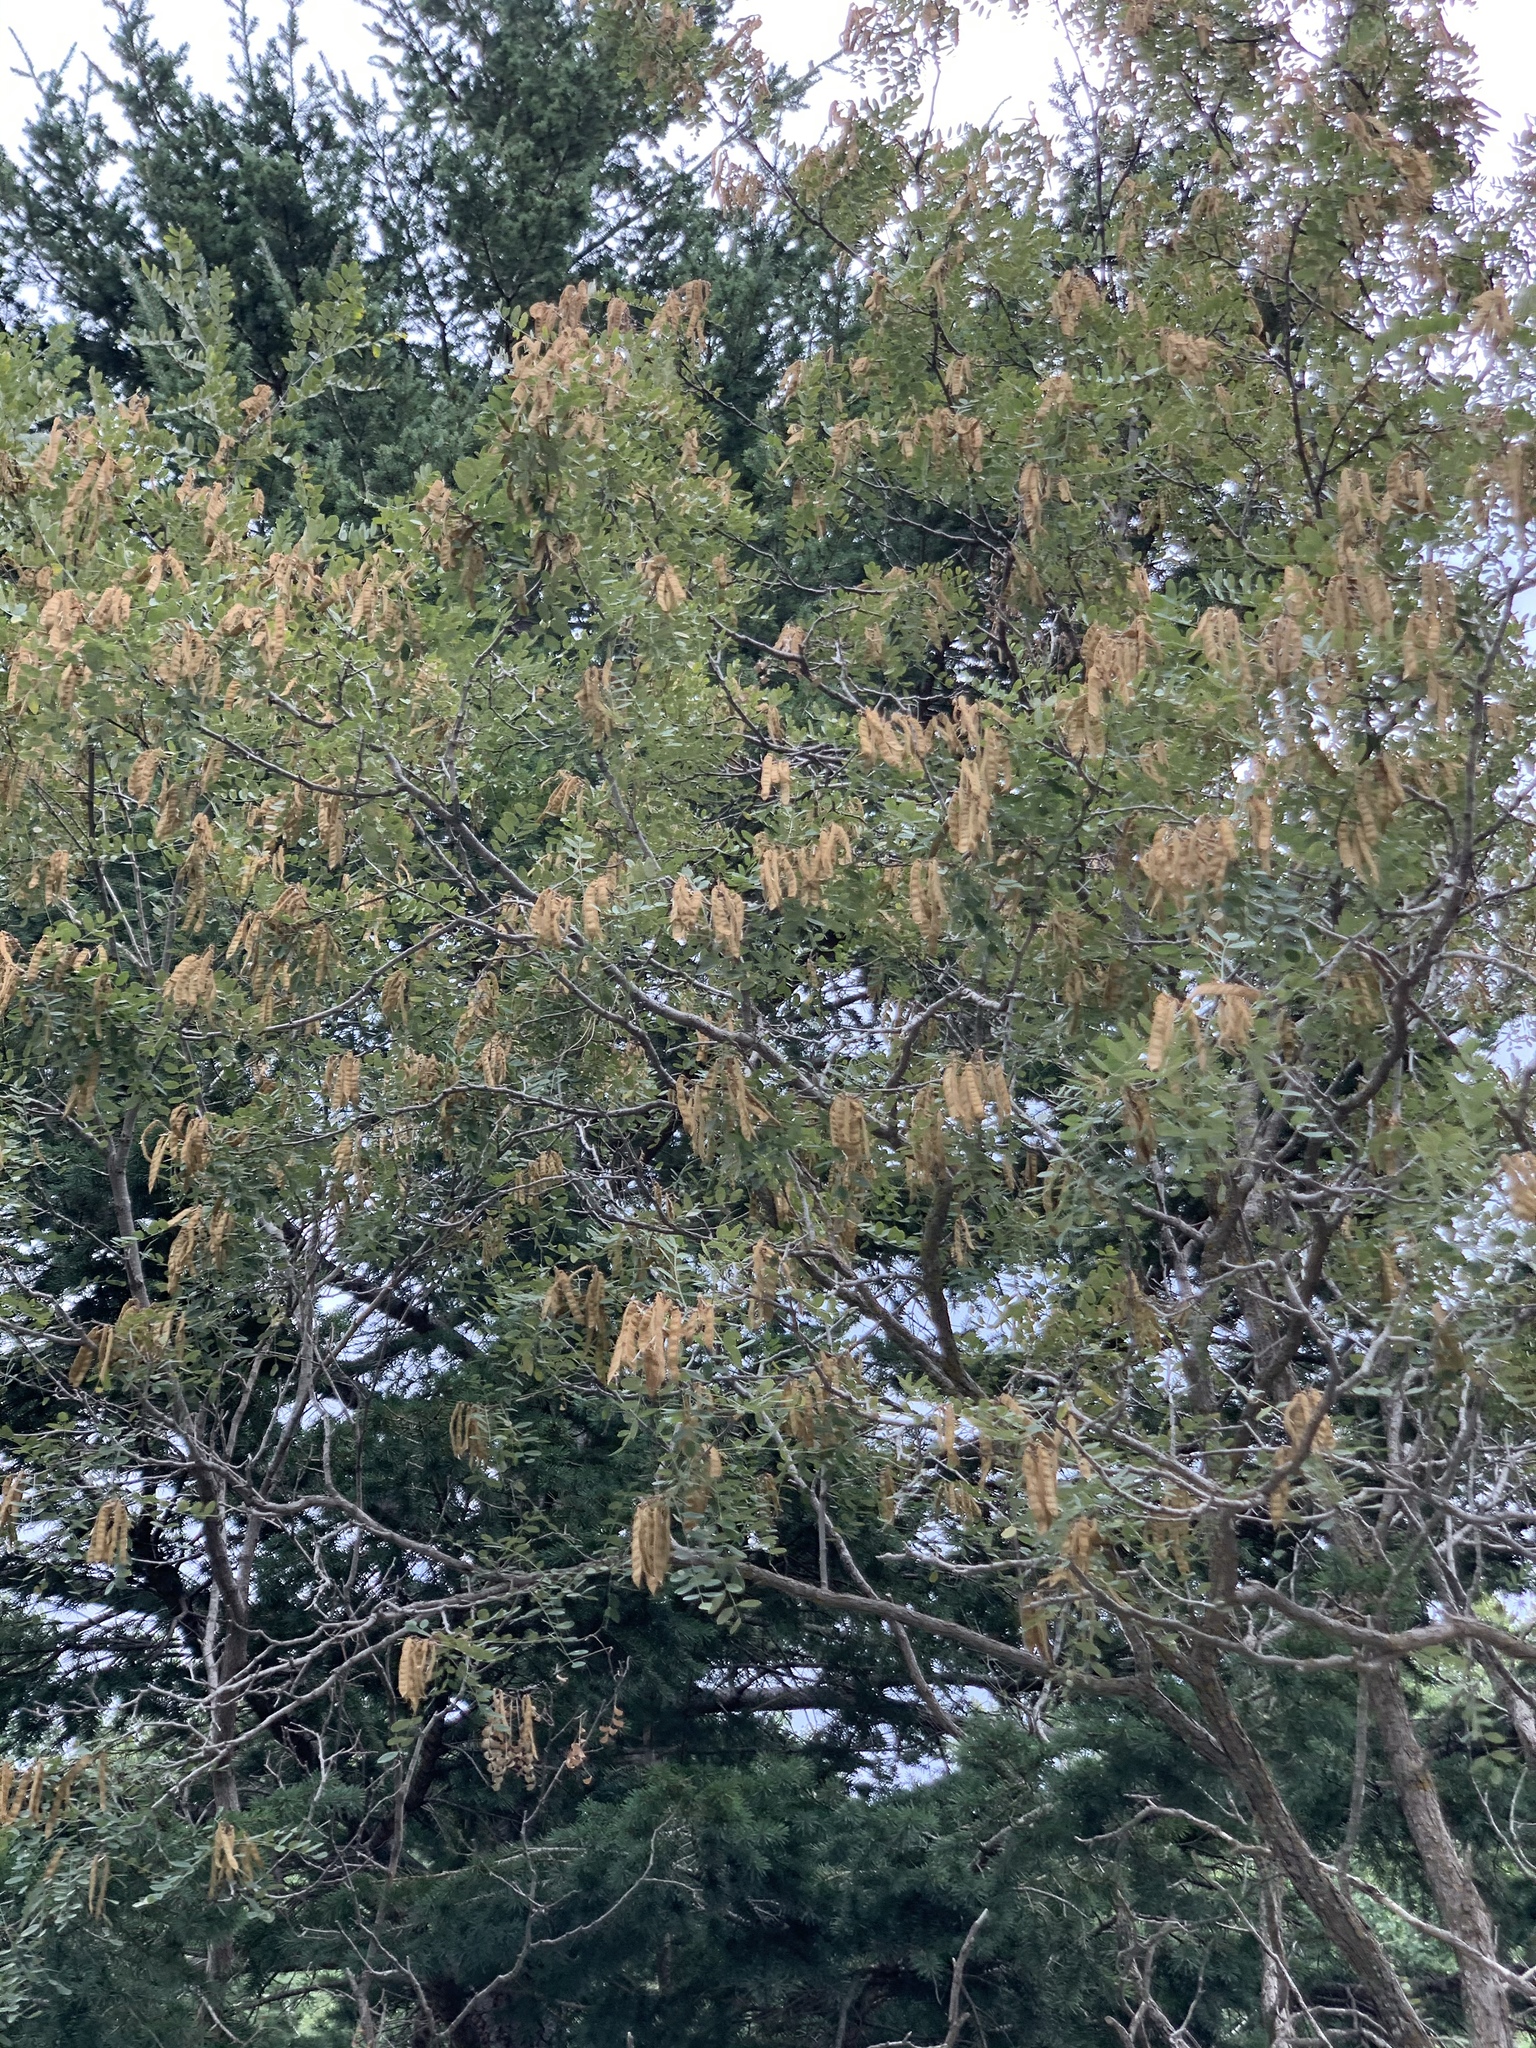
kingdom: Plantae
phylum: Tracheophyta
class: Magnoliopsida
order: Fabales
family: Fabaceae
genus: Robinia
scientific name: Robinia neomexicana
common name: New mexico locust
